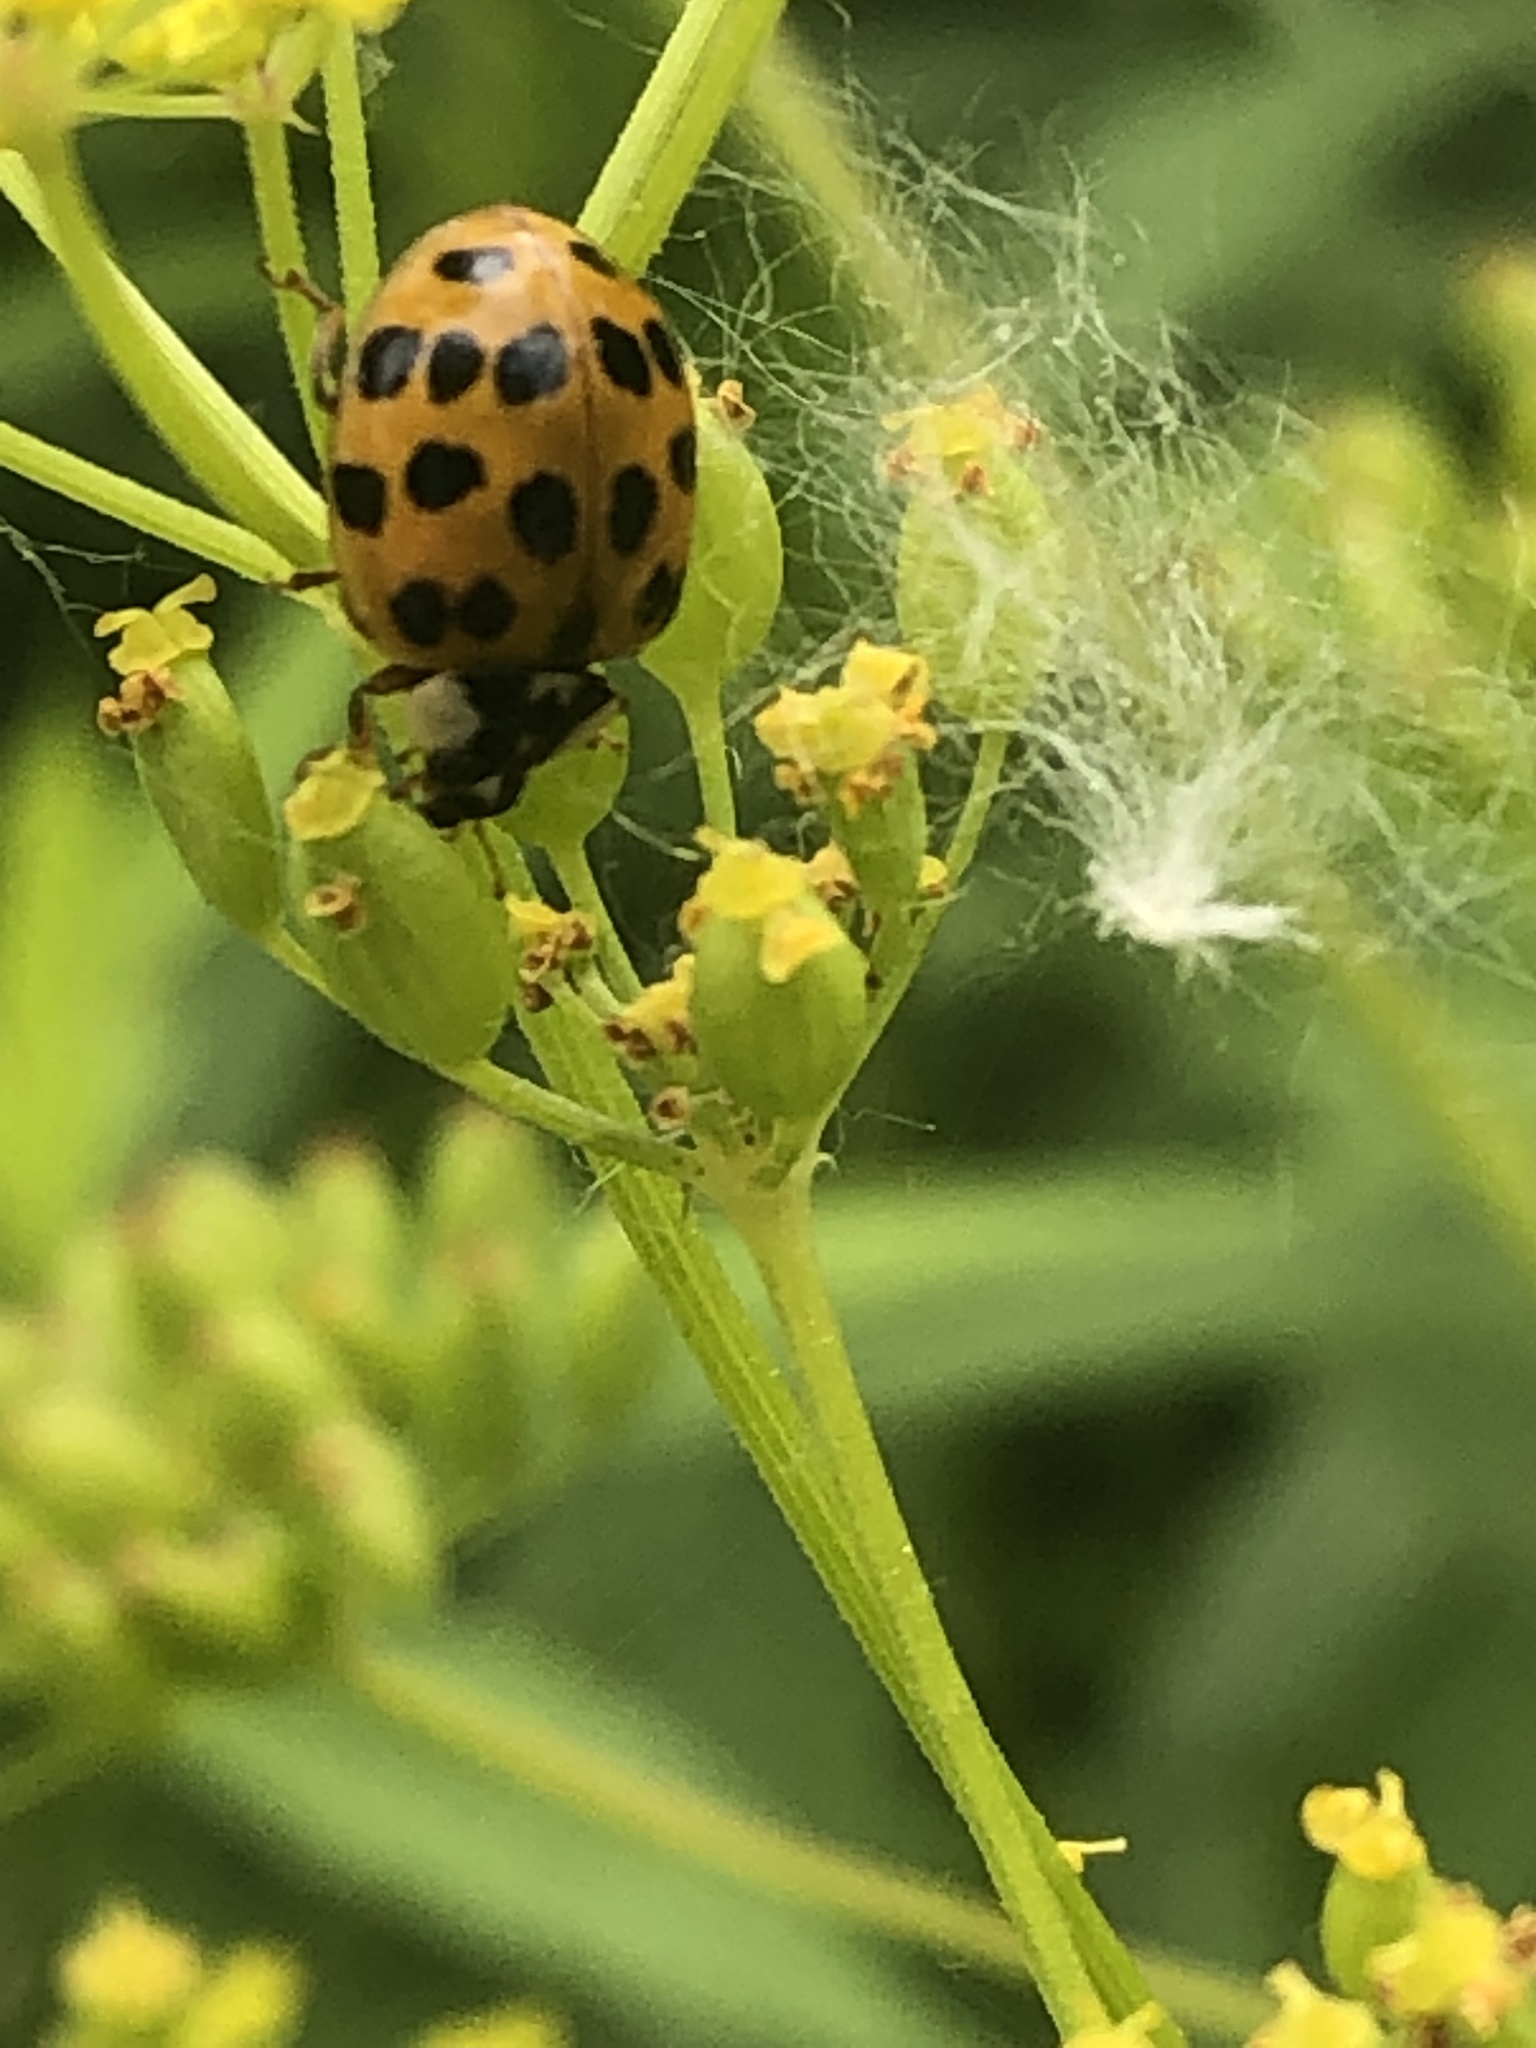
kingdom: Animalia
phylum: Arthropoda
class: Insecta
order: Coleoptera
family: Coccinellidae
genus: Harmonia
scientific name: Harmonia axyridis
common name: Harlequin ladybird
